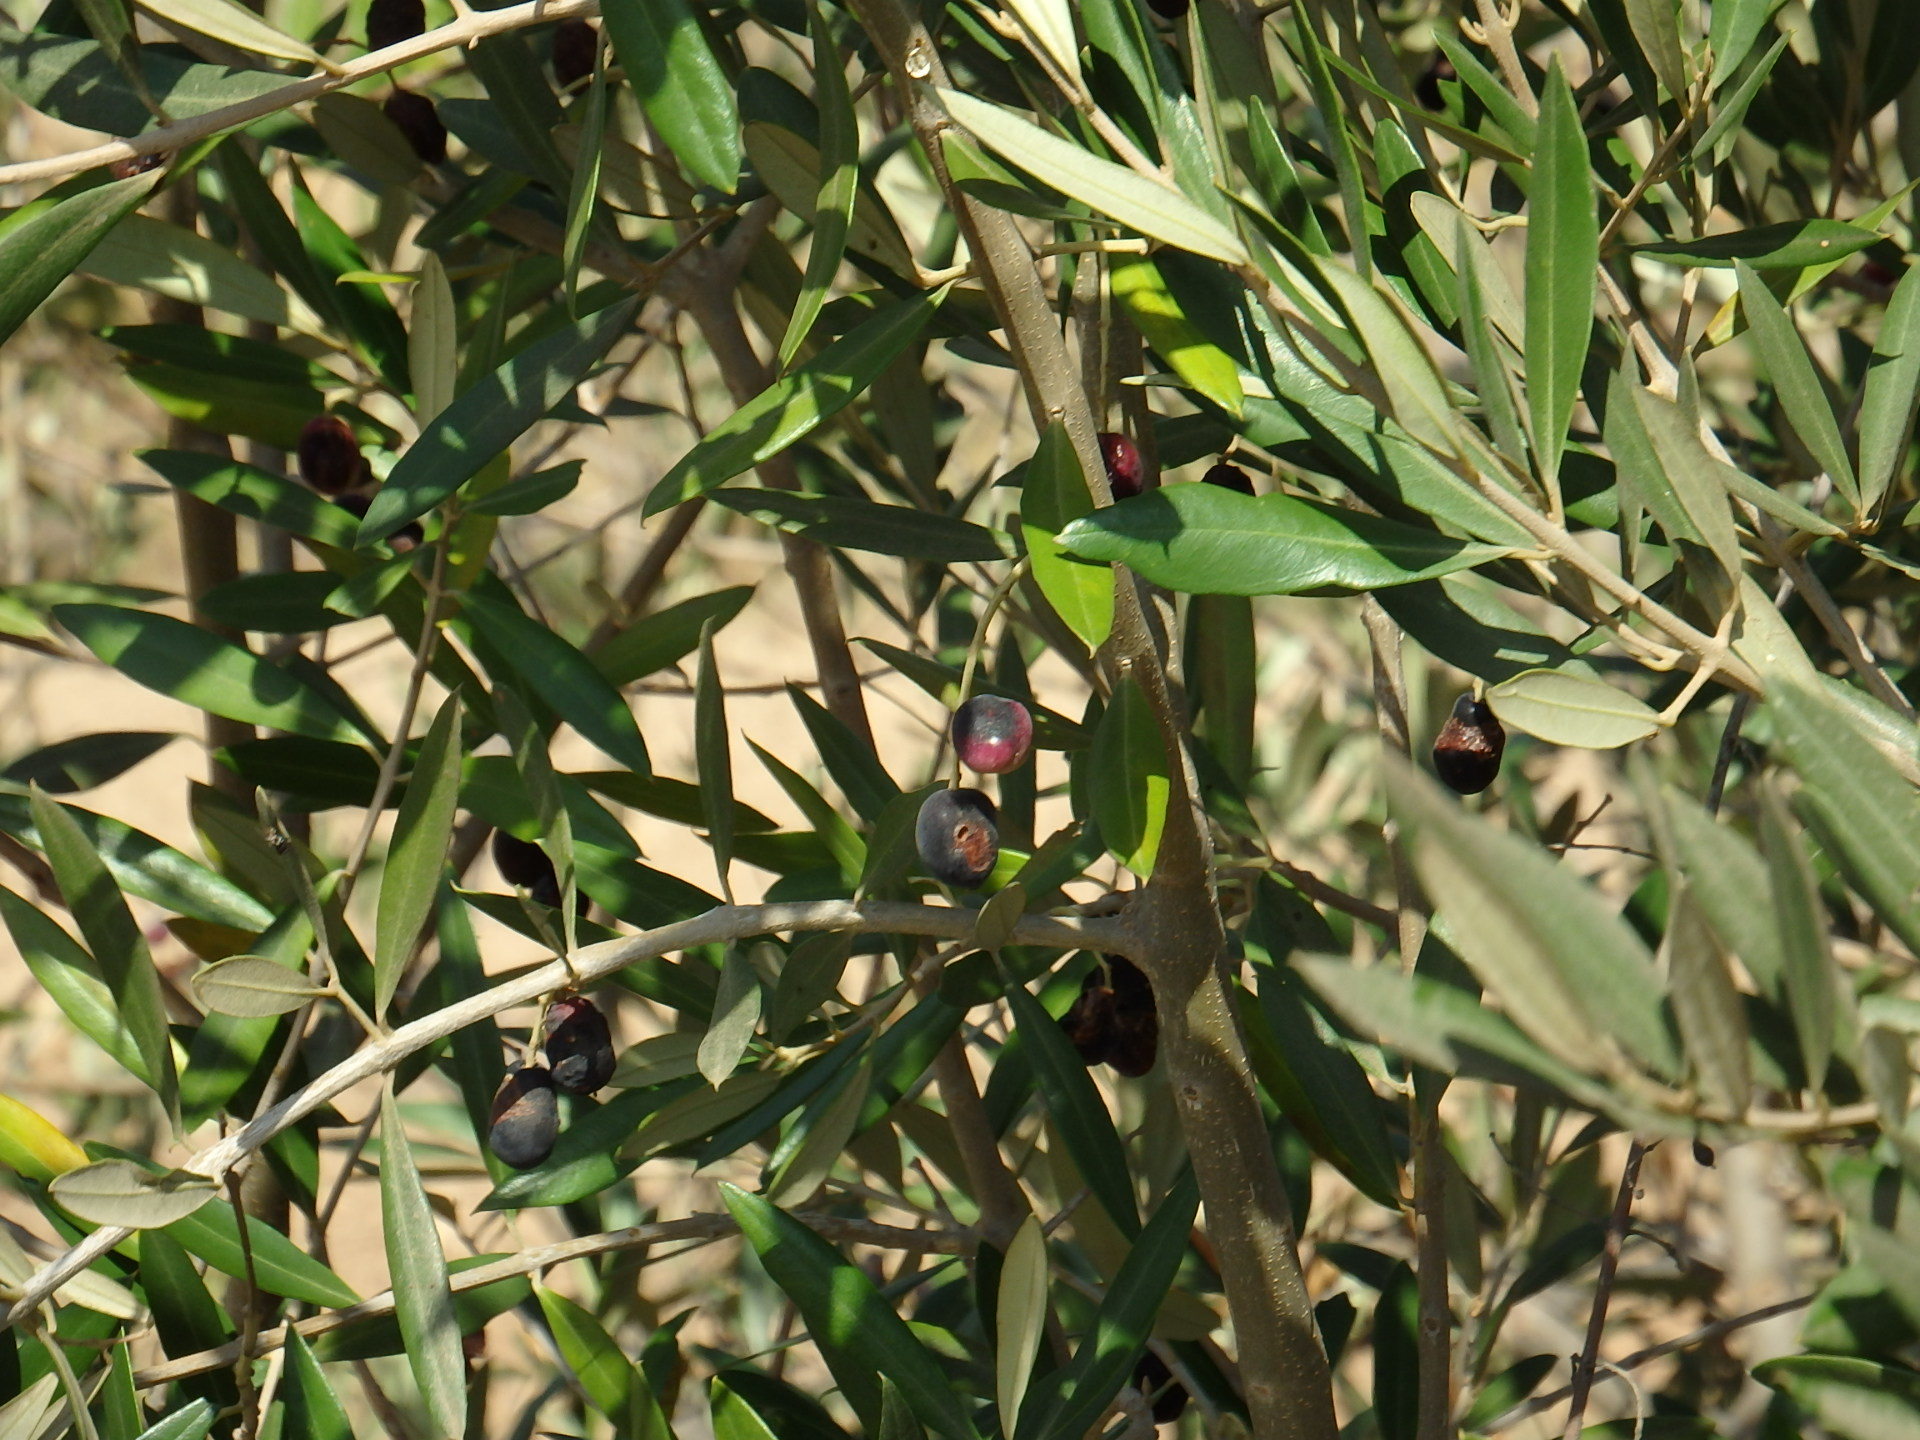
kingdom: Plantae
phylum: Tracheophyta
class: Magnoliopsida
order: Lamiales
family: Oleaceae
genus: Olea
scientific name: Olea europaea
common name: Olive
